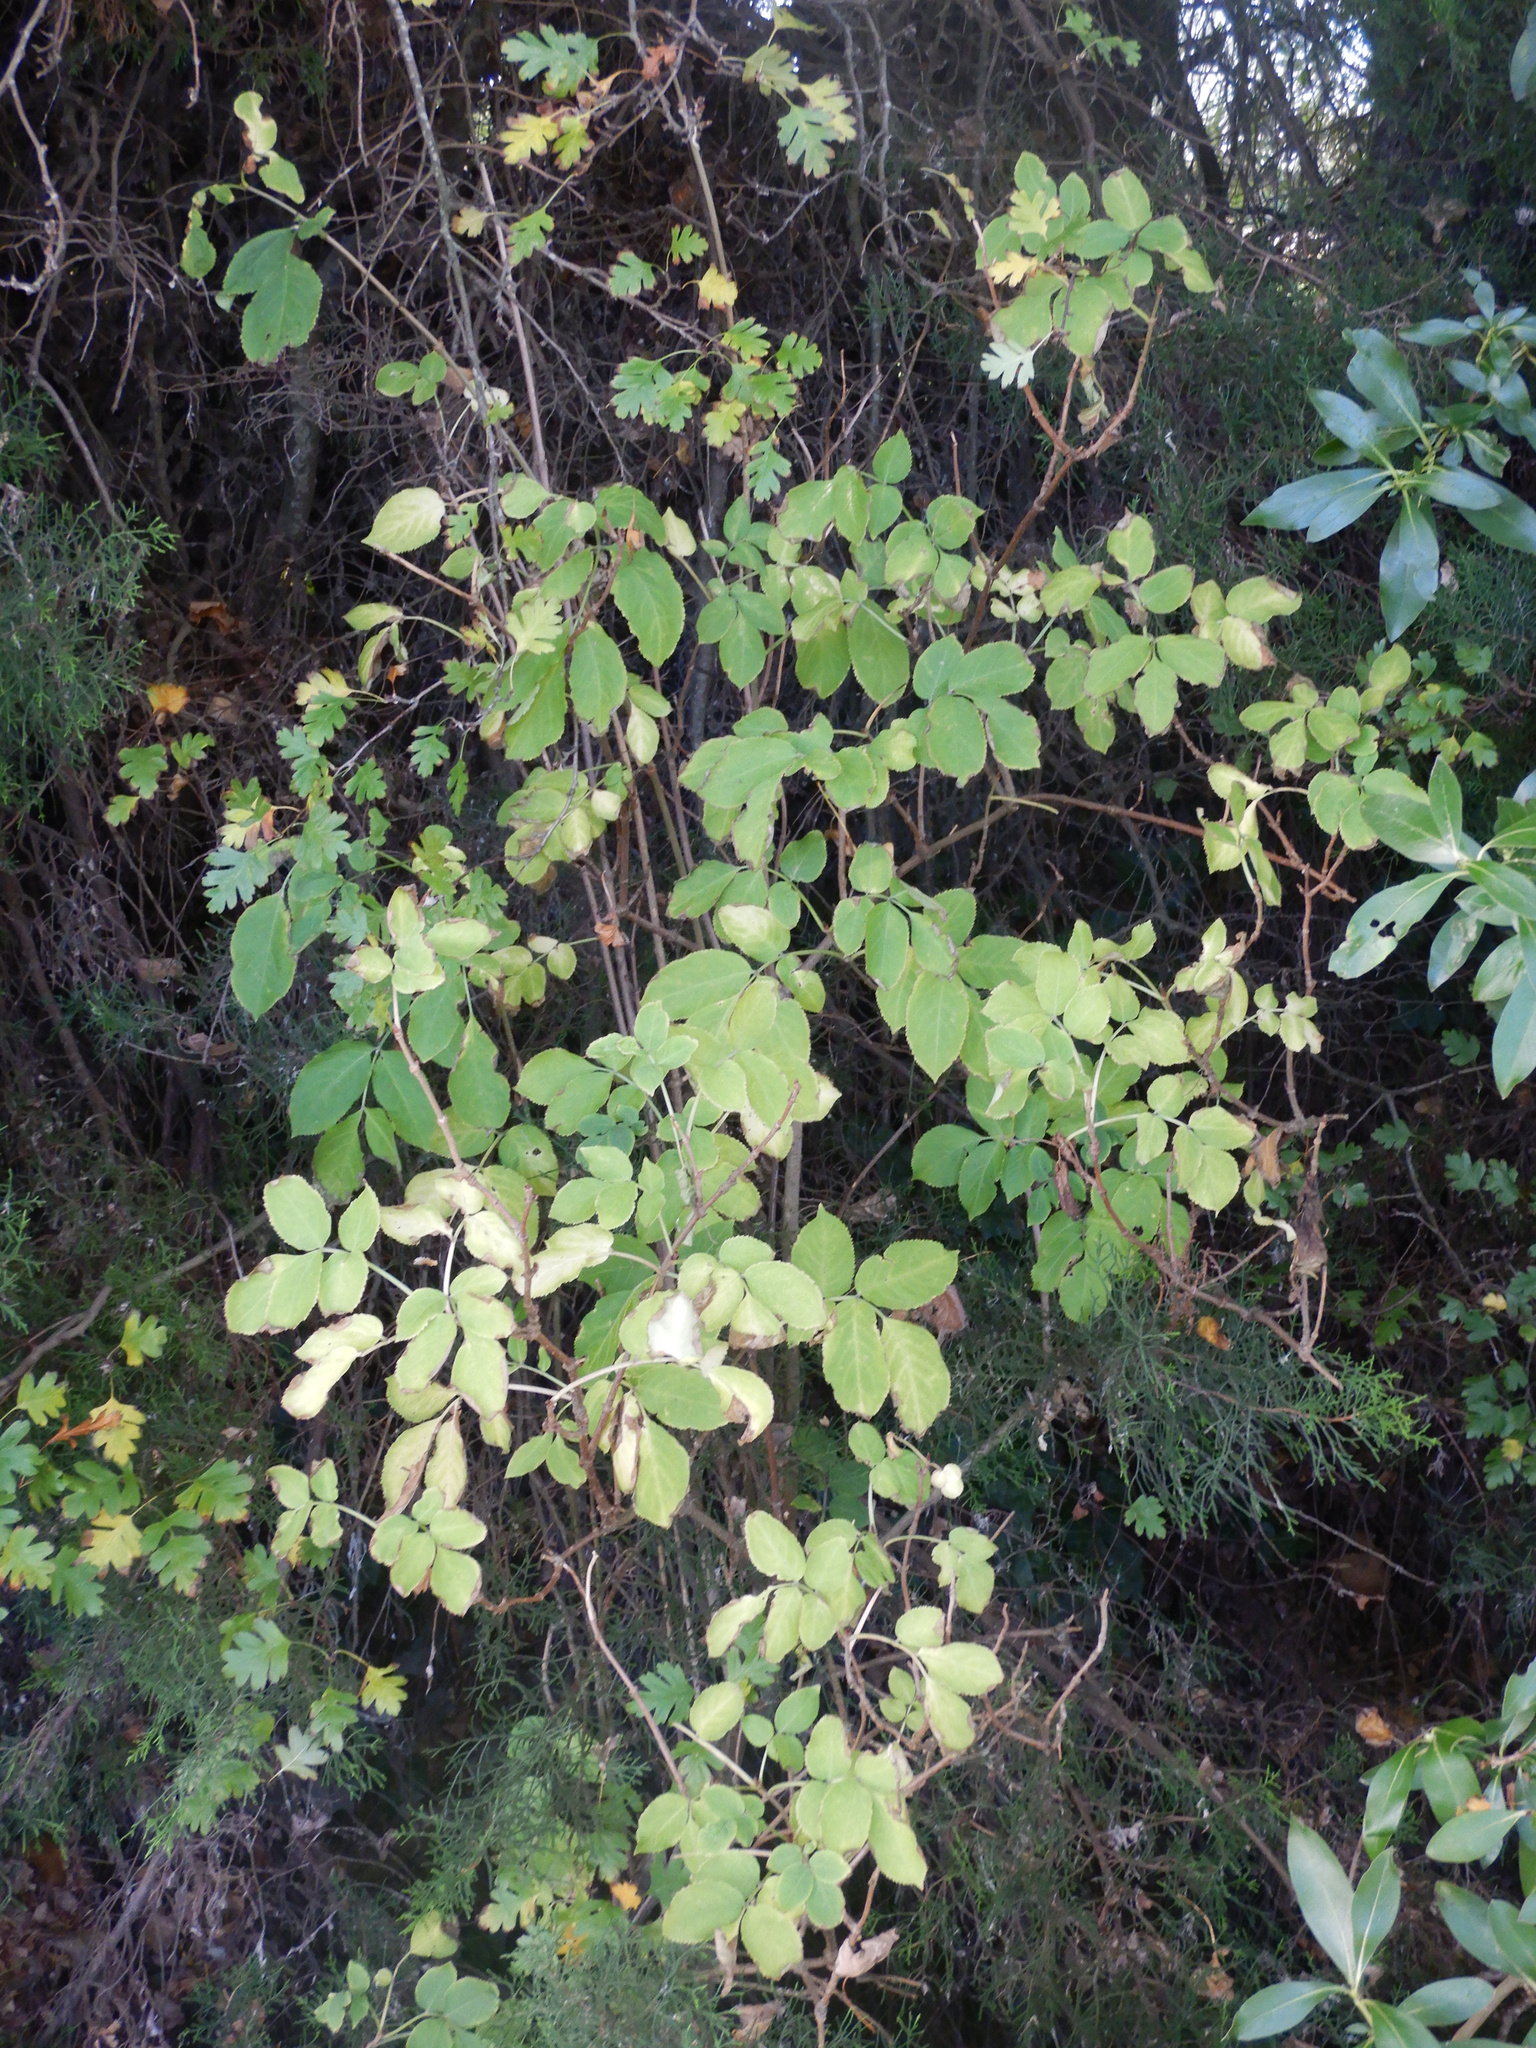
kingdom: Plantae
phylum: Tracheophyta
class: Magnoliopsida
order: Rosales
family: Rosaceae
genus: Crataegus
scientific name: Crataegus monogyna
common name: Hawthorn
